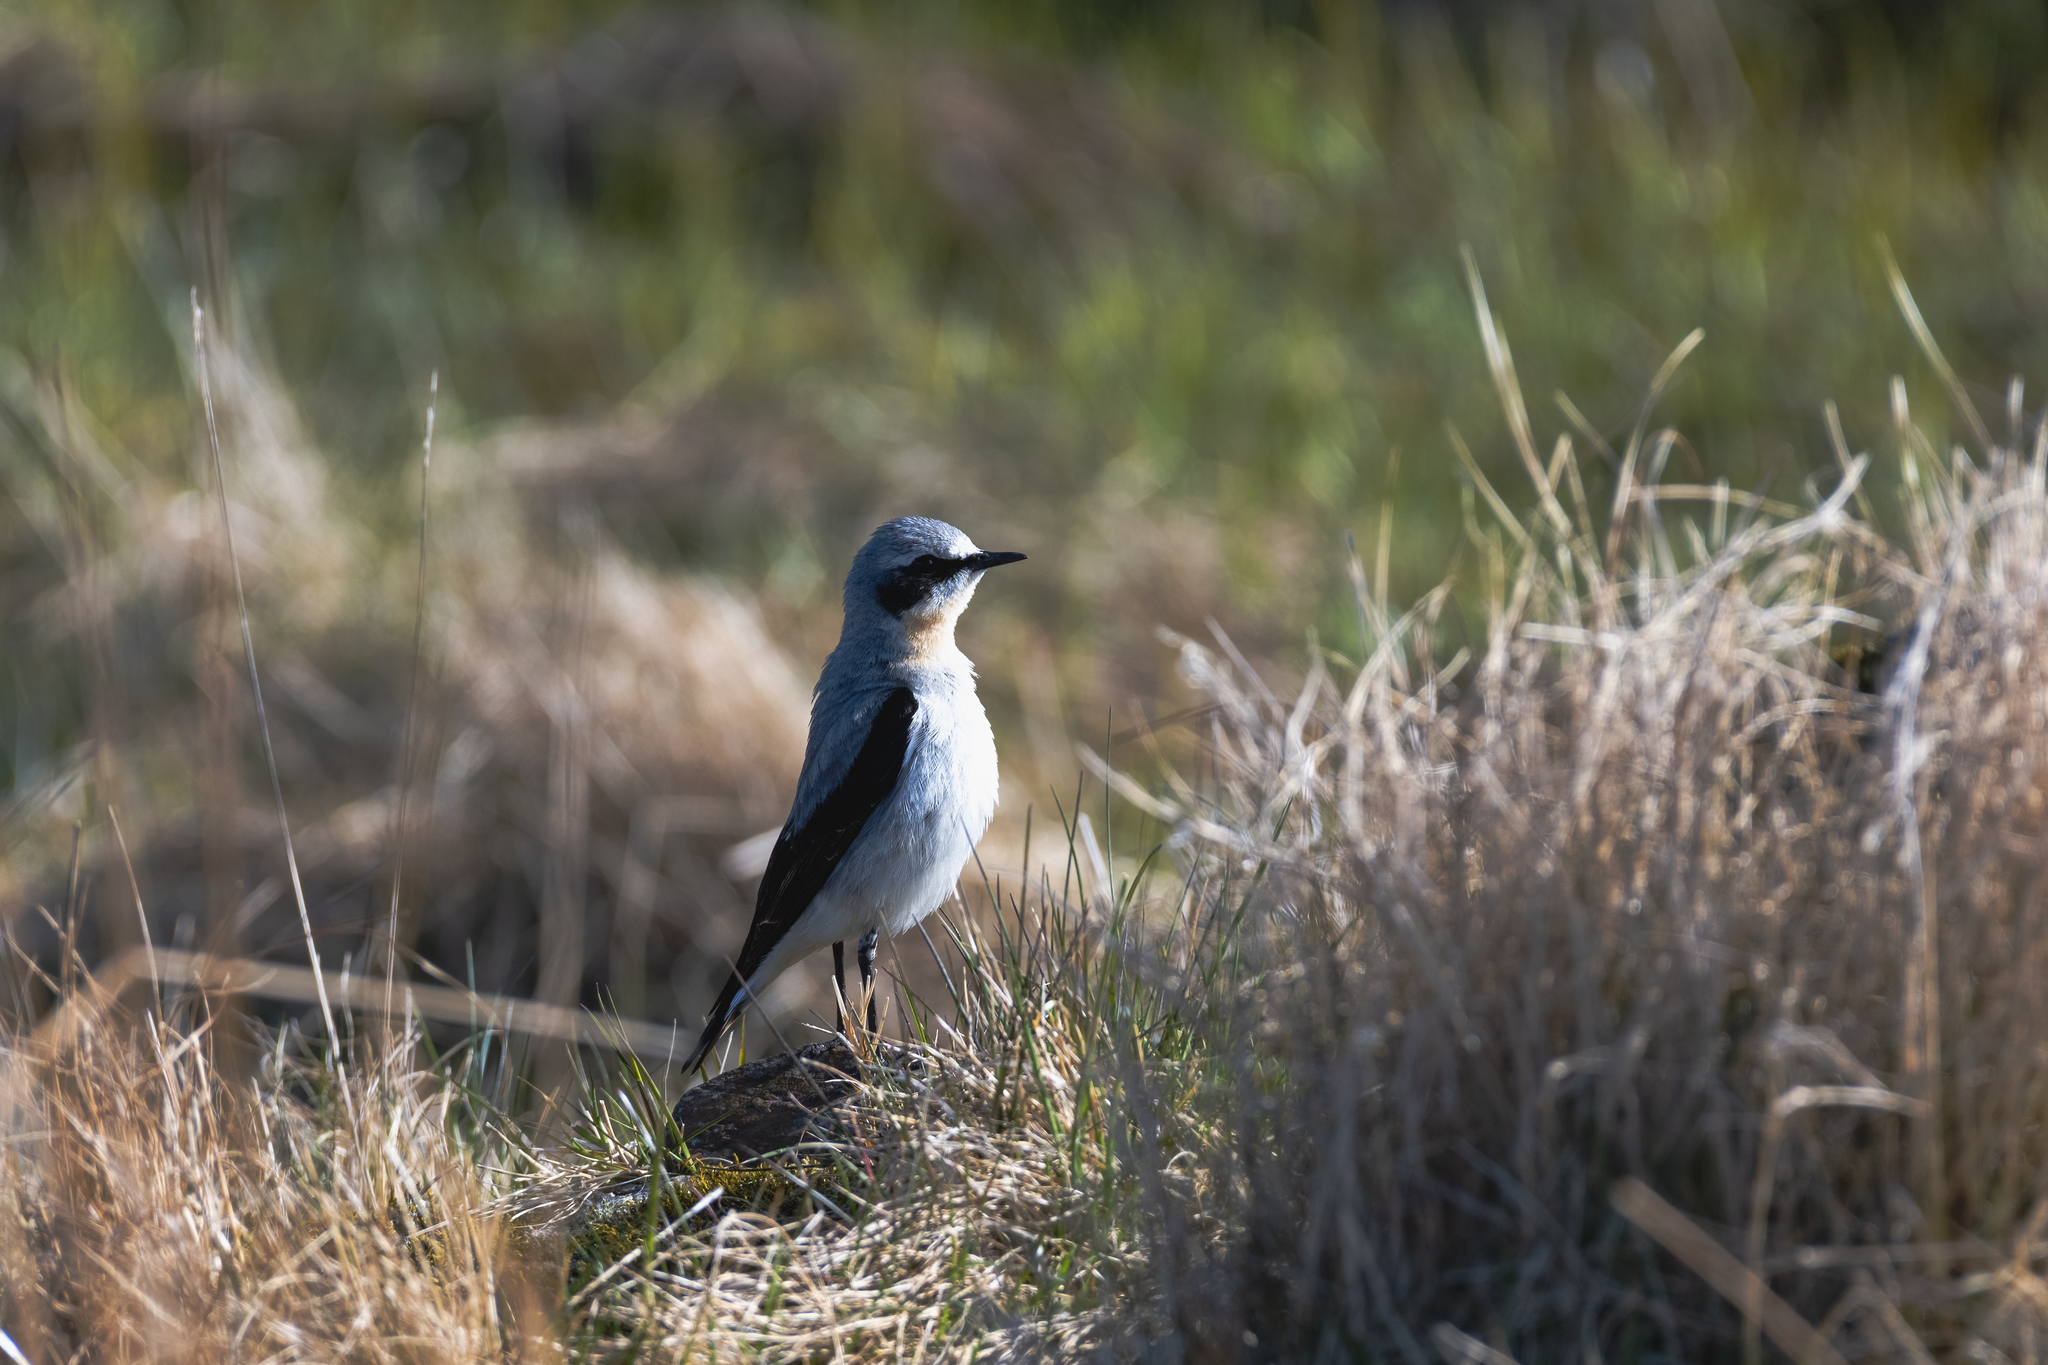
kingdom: Animalia
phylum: Chordata
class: Aves
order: Passeriformes
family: Muscicapidae
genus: Oenanthe
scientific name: Oenanthe oenanthe
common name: Northern wheatear
